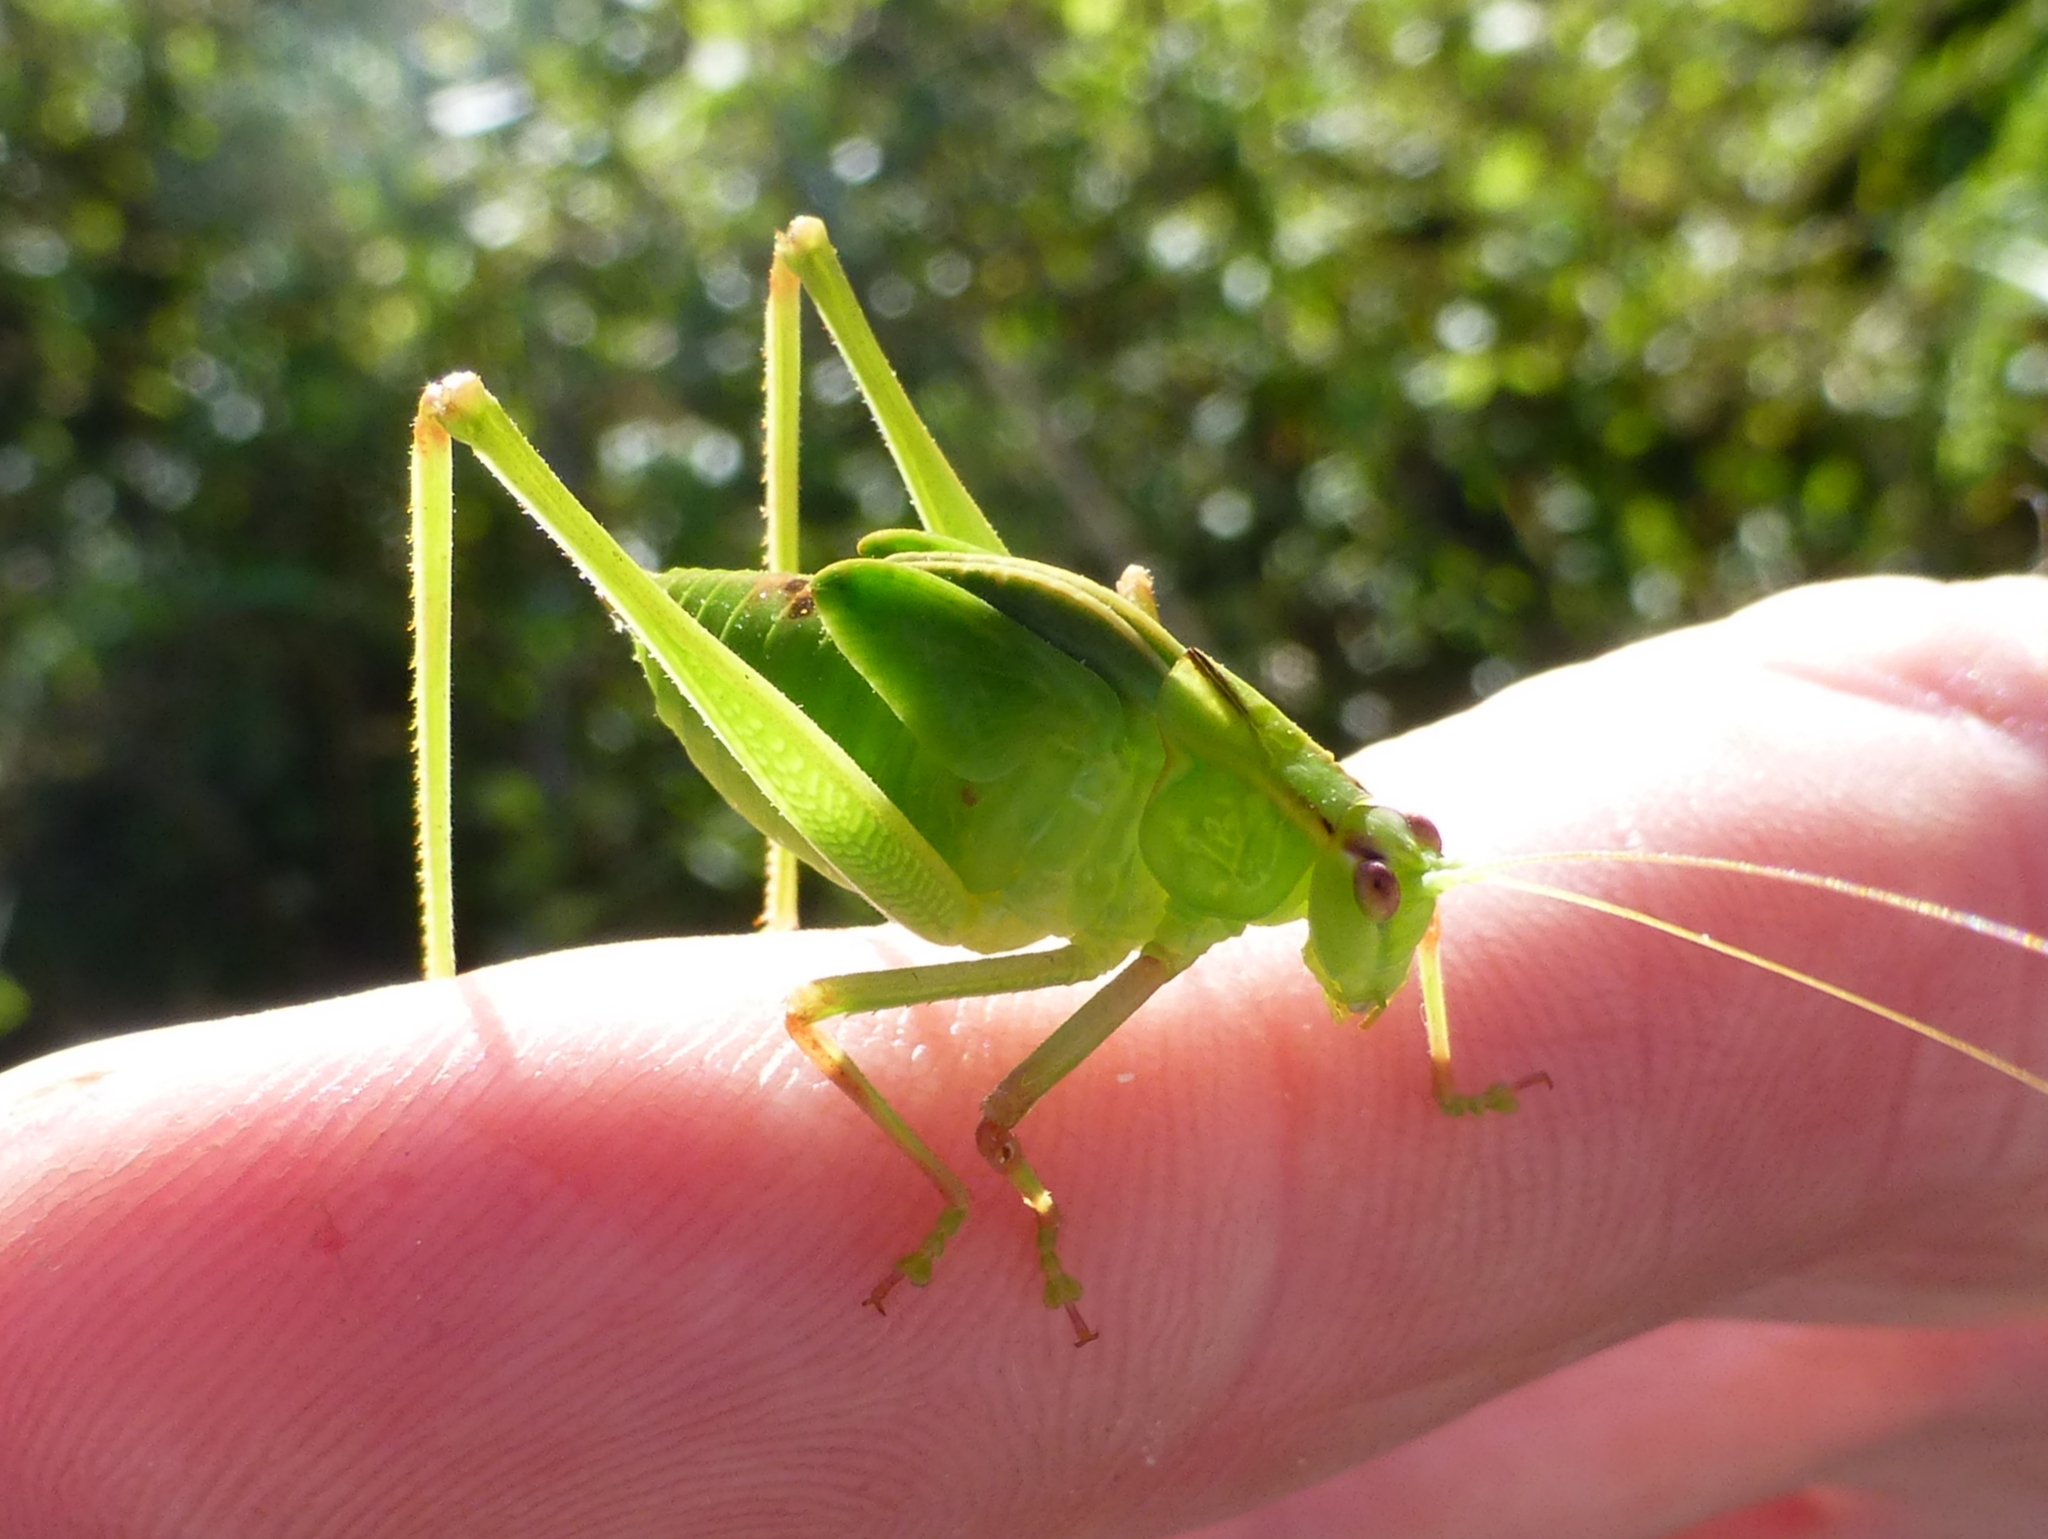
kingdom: Animalia
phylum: Arthropoda
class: Insecta
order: Orthoptera
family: Tettigoniidae
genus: Caedicia
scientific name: Caedicia simplex
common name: Common garden katydid
